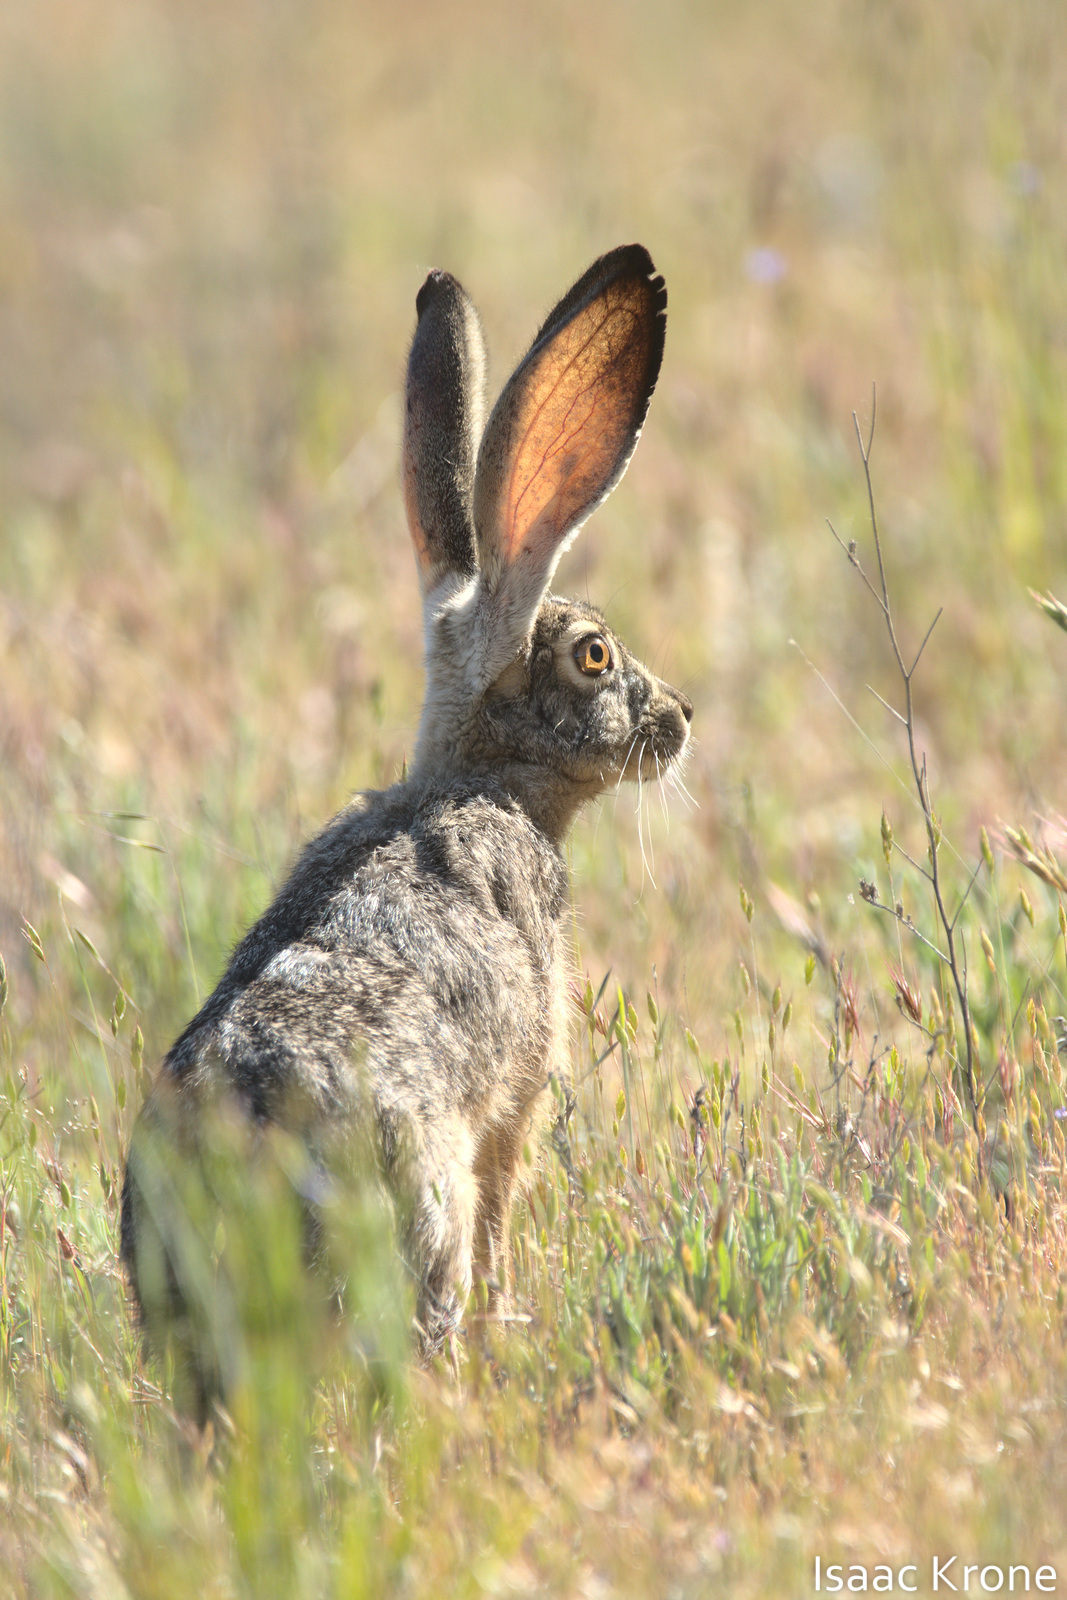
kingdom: Animalia
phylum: Chordata
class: Mammalia
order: Lagomorpha
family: Leporidae
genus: Lepus
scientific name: Lepus californicus
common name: Black-tailed jackrabbit
